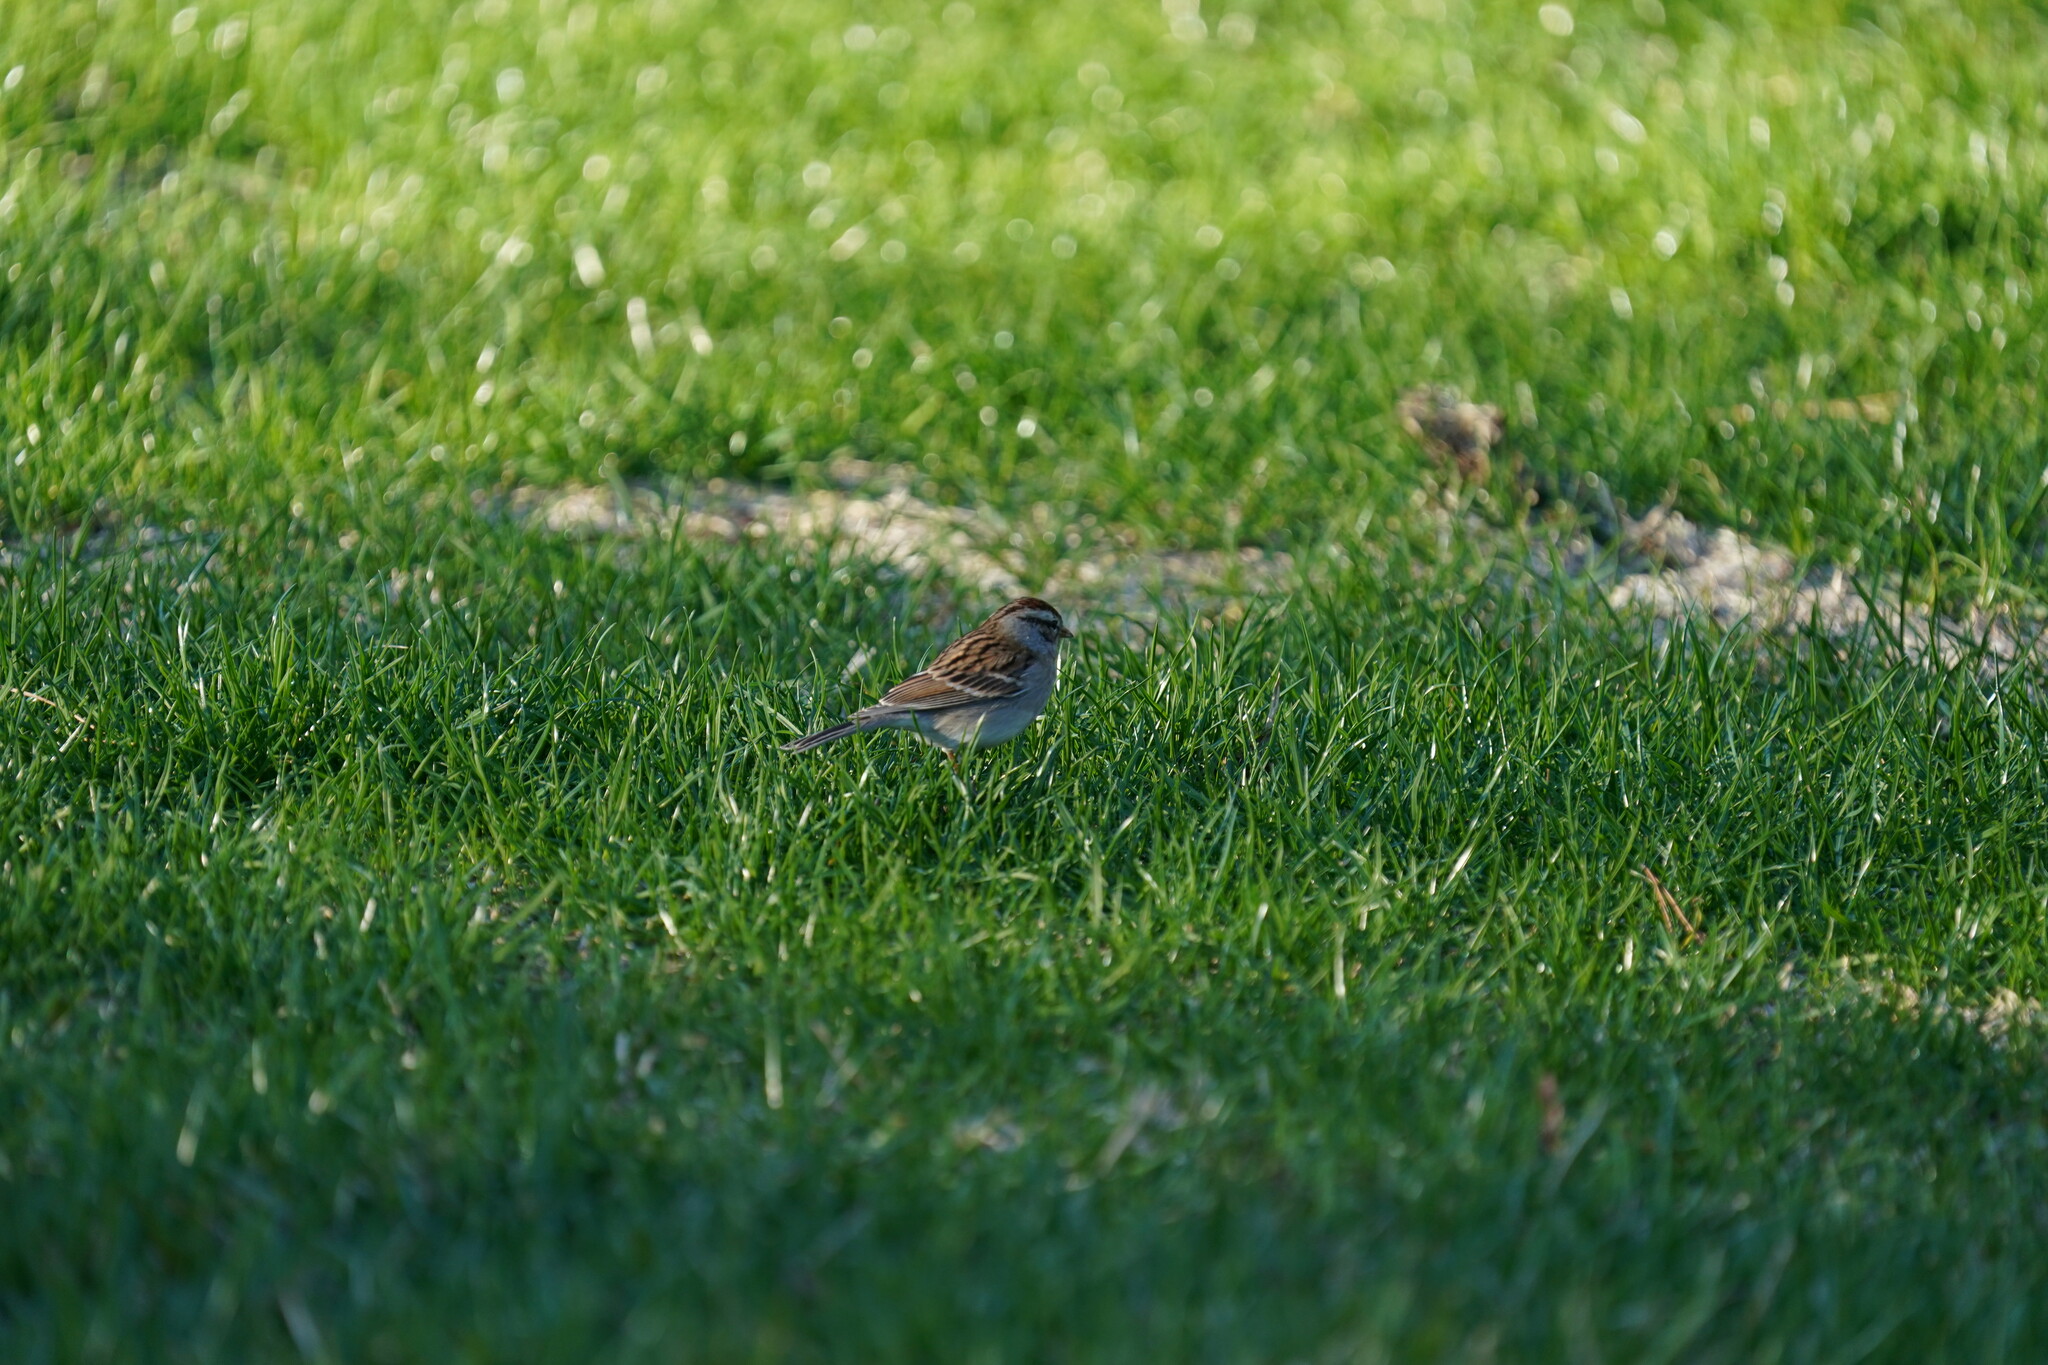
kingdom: Animalia
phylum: Chordata
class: Aves
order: Passeriformes
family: Passerellidae
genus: Spizella
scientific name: Spizella passerina
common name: Chipping sparrow
